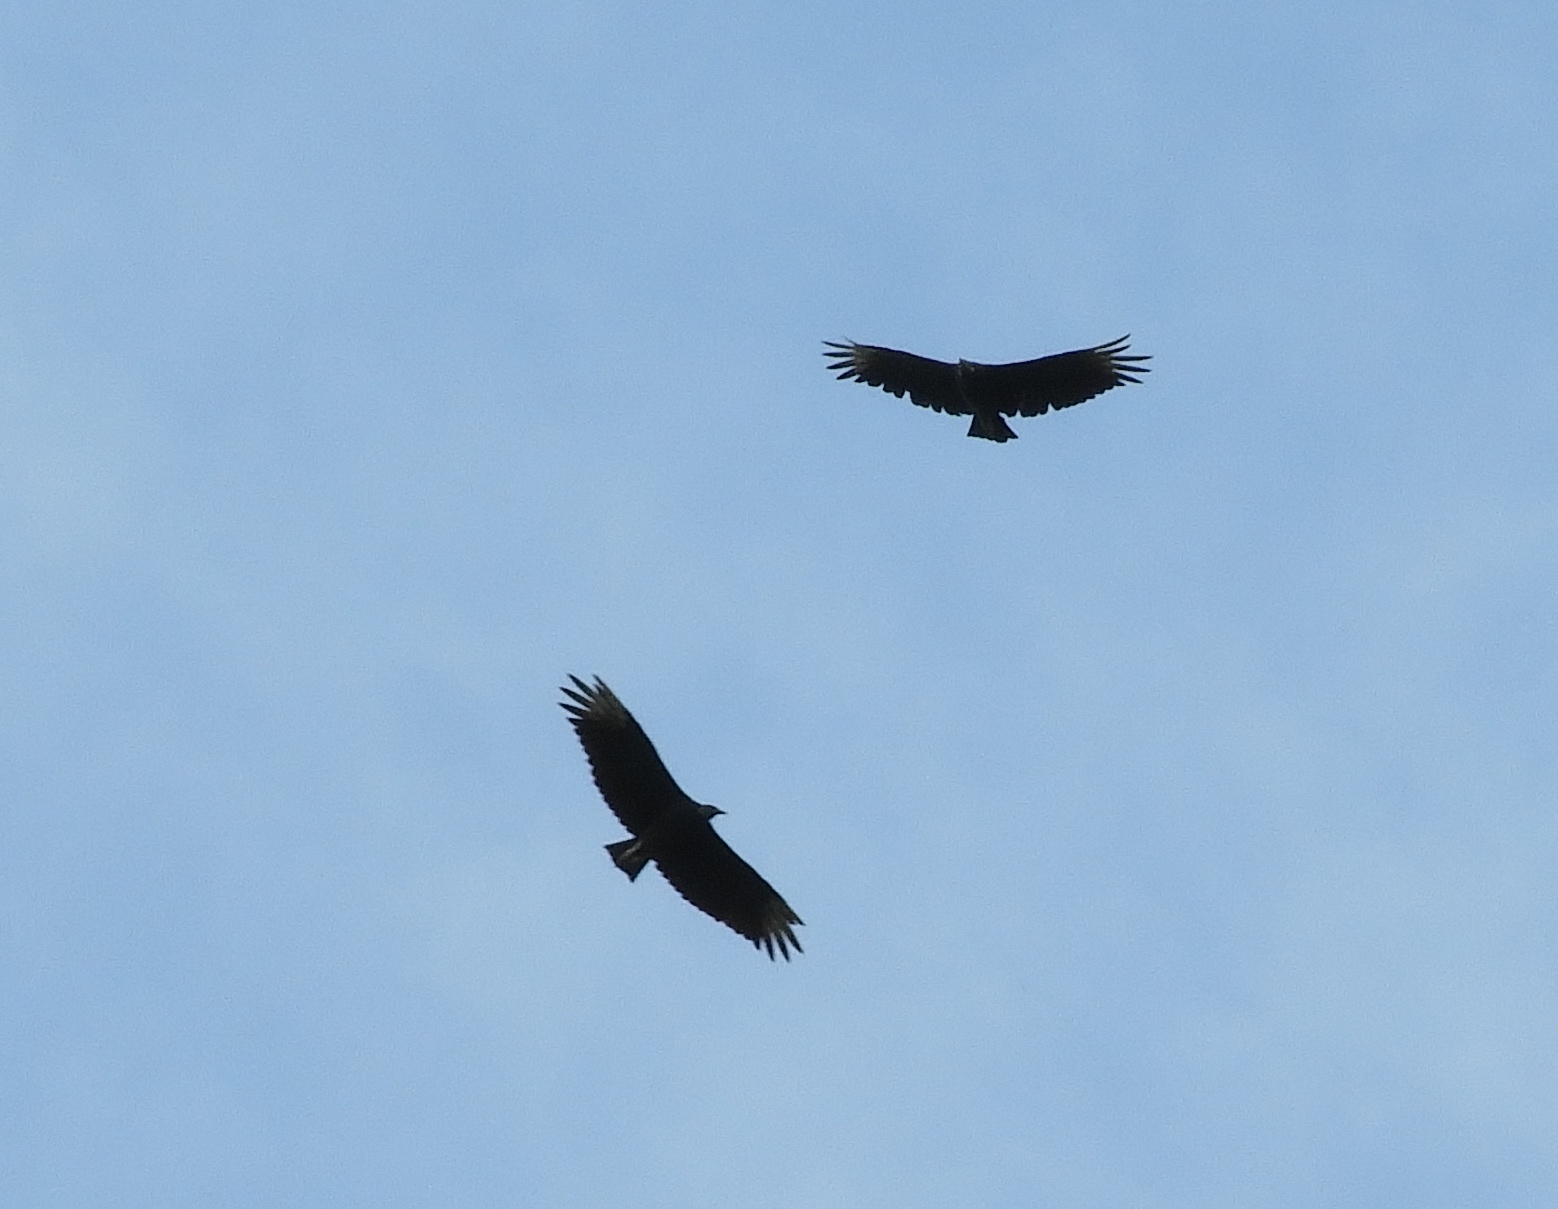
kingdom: Animalia
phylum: Chordata
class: Aves
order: Accipitriformes
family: Cathartidae
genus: Coragyps
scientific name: Coragyps atratus
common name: Black vulture
